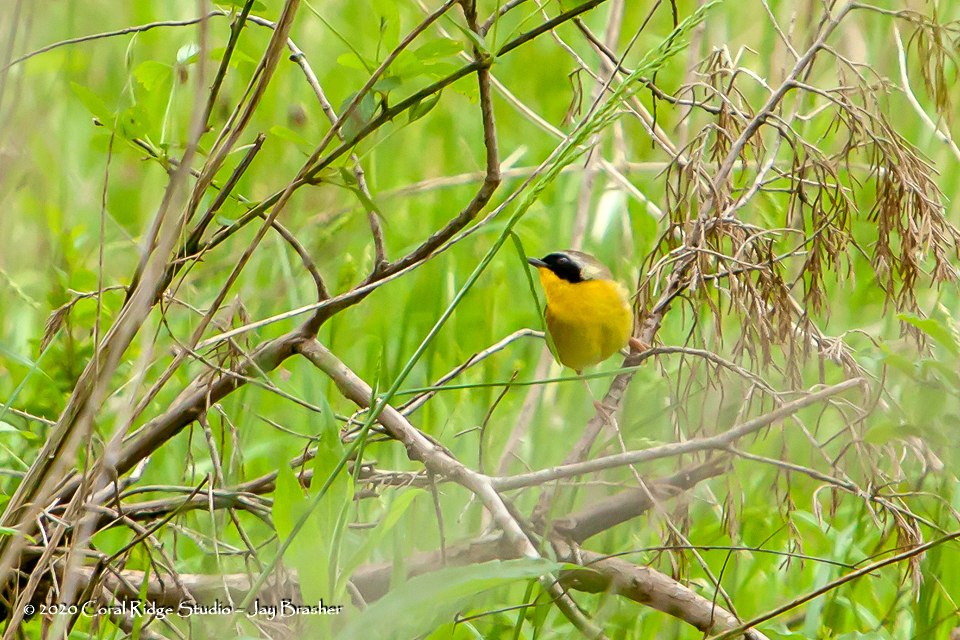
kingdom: Animalia
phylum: Chordata
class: Aves
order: Passeriformes
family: Parulidae
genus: Geothlypis
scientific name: Geothlypis trichas
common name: Common yellowthroat
